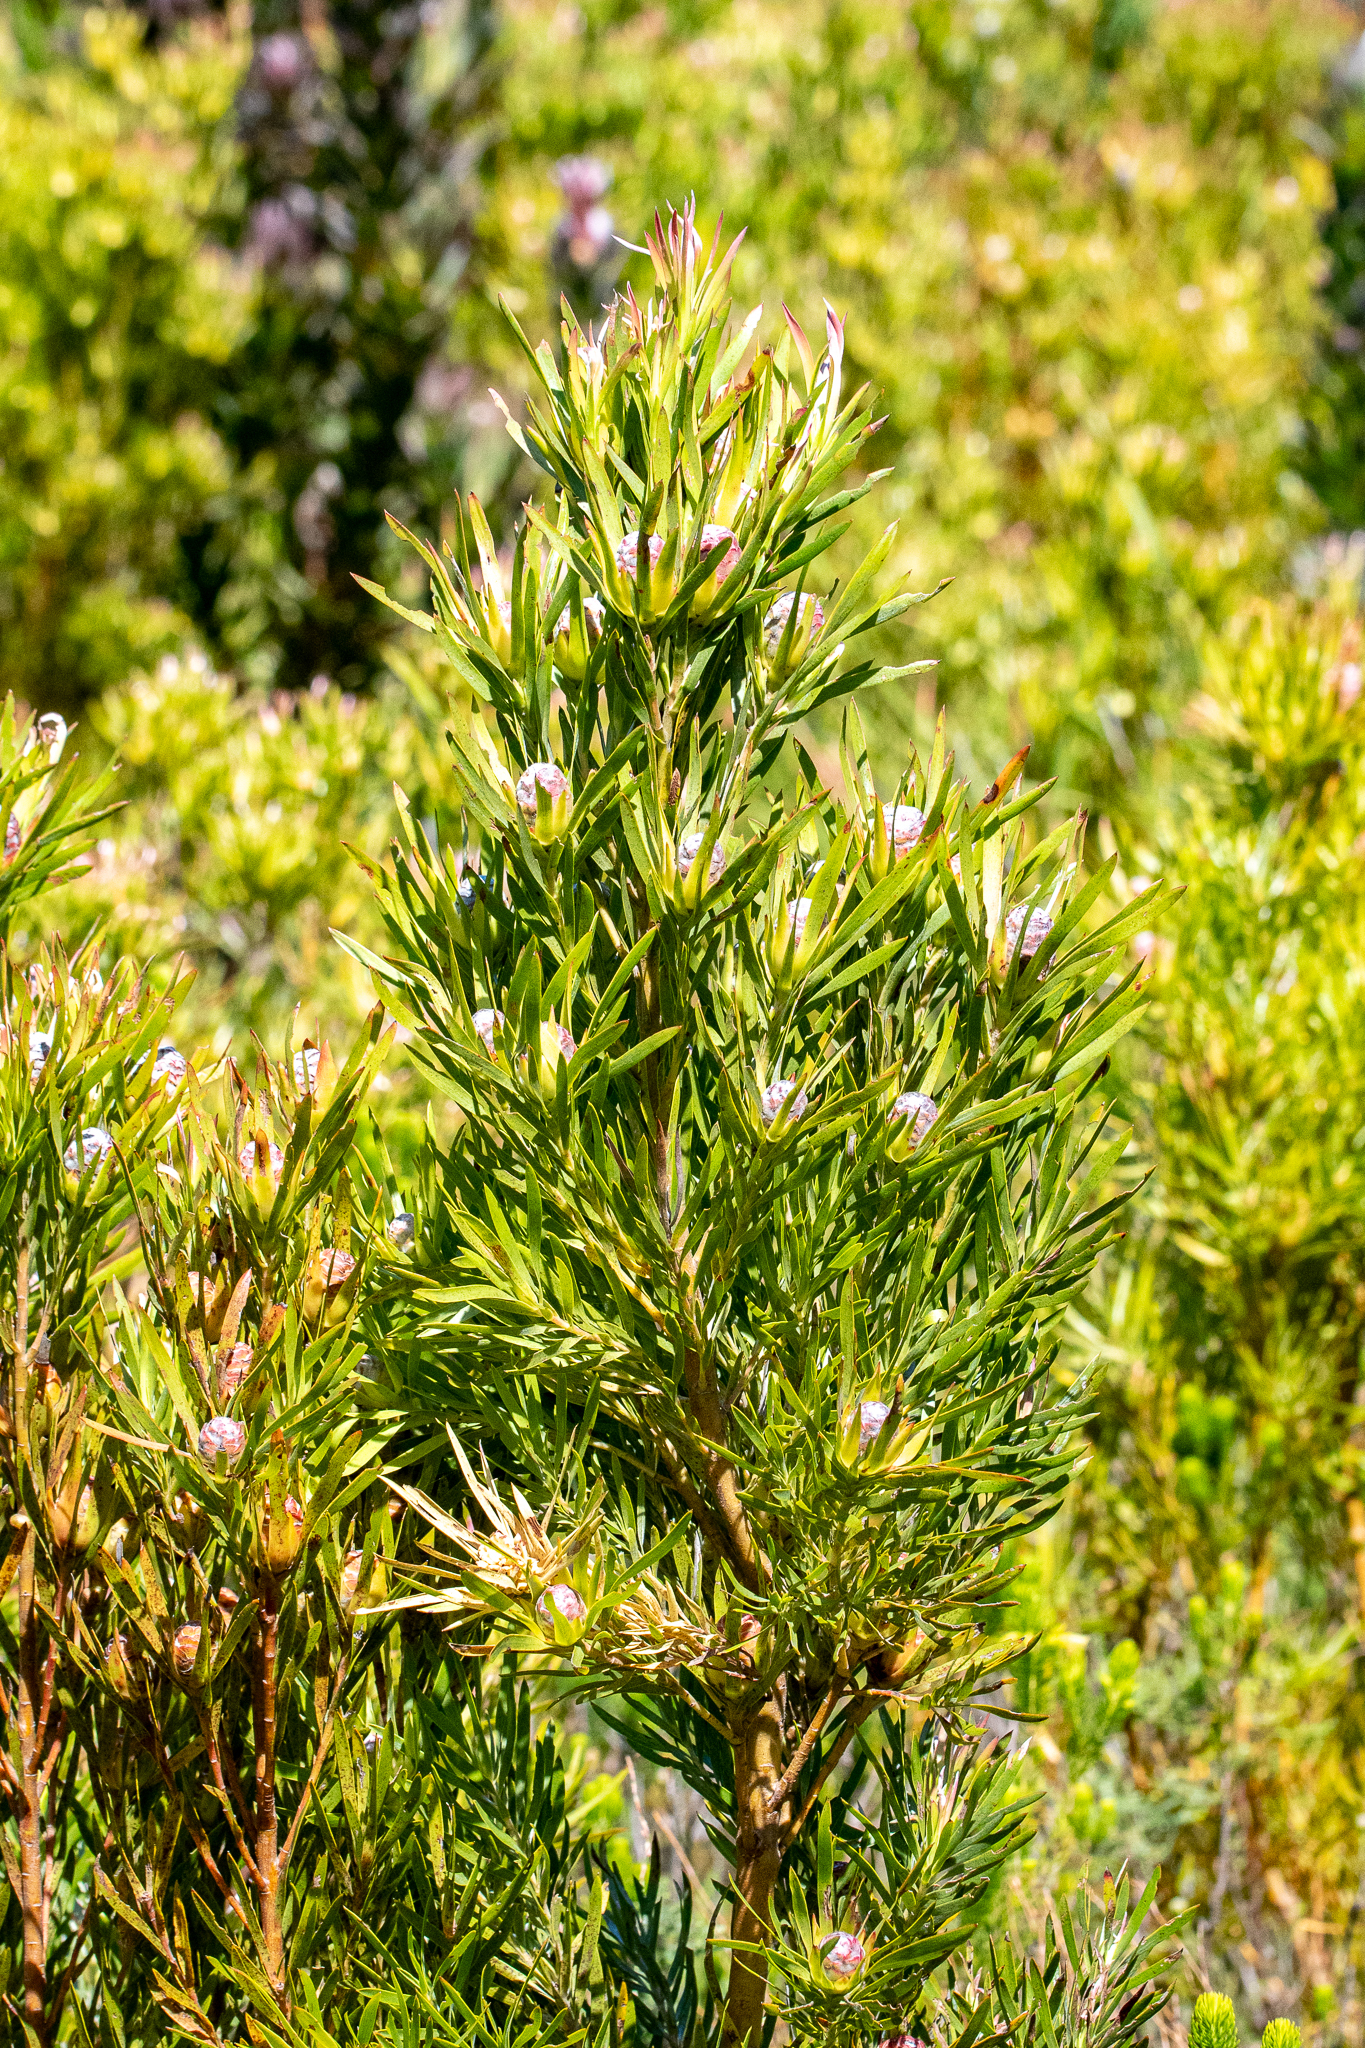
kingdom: Plantae
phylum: Tracheophyta
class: Magnoliopsida
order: Proteales
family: Proteaceae
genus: Leucadendron
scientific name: Leucadendron xanthoconus
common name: Sickle-leaf conebush
